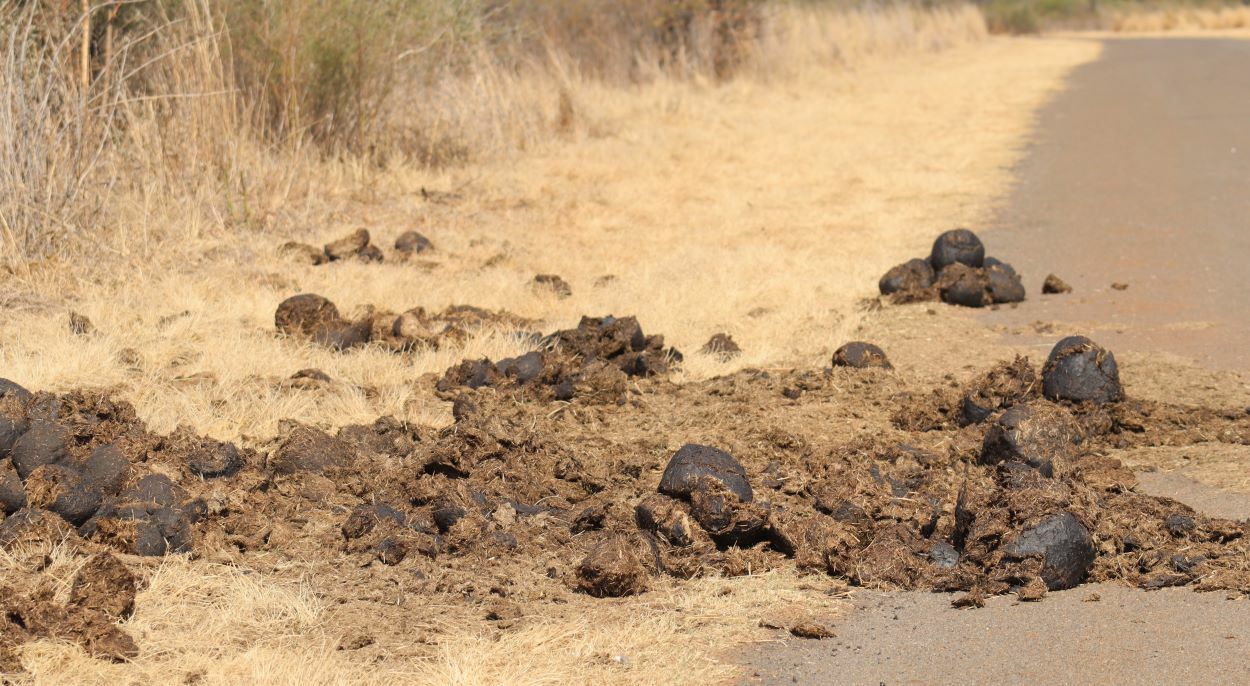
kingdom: Animalia
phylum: Chordata
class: Mammalia
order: Perissodactyla
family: Rhinocerotidae
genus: Ceratotherium
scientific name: Ceratotherium simum
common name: White rhinoceros
